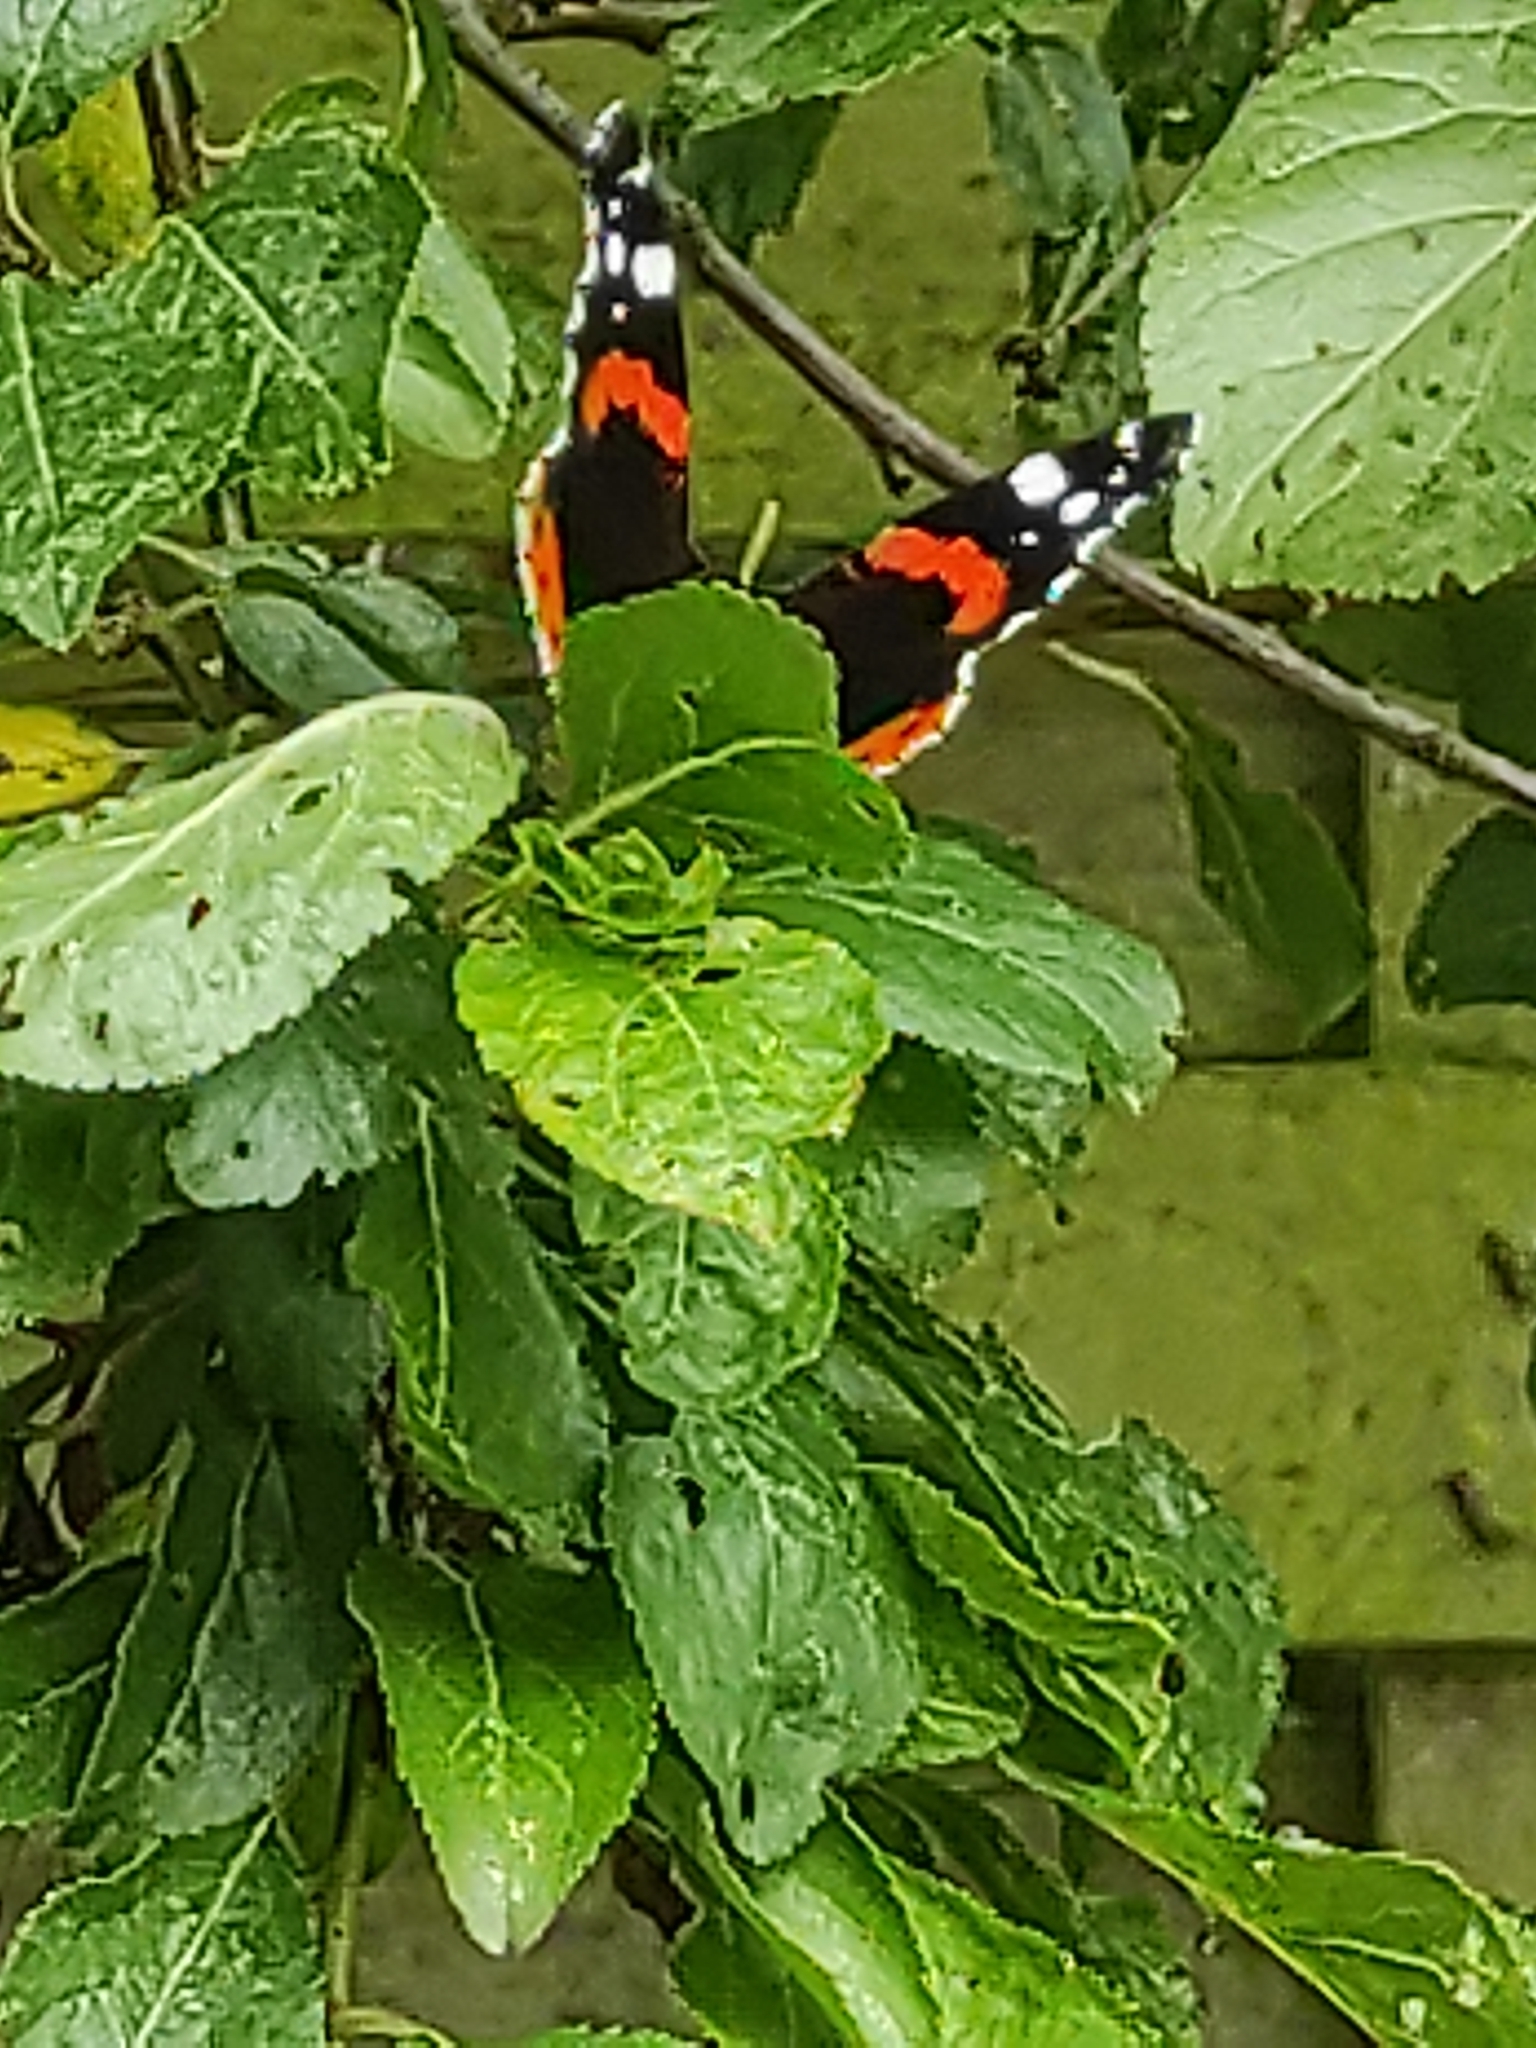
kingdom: Animalia
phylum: Arthropoda
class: Insecta
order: Lepidoptera
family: Nymphalidae
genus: Vanessa
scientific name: Vanessa atalanta
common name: Red admiral
